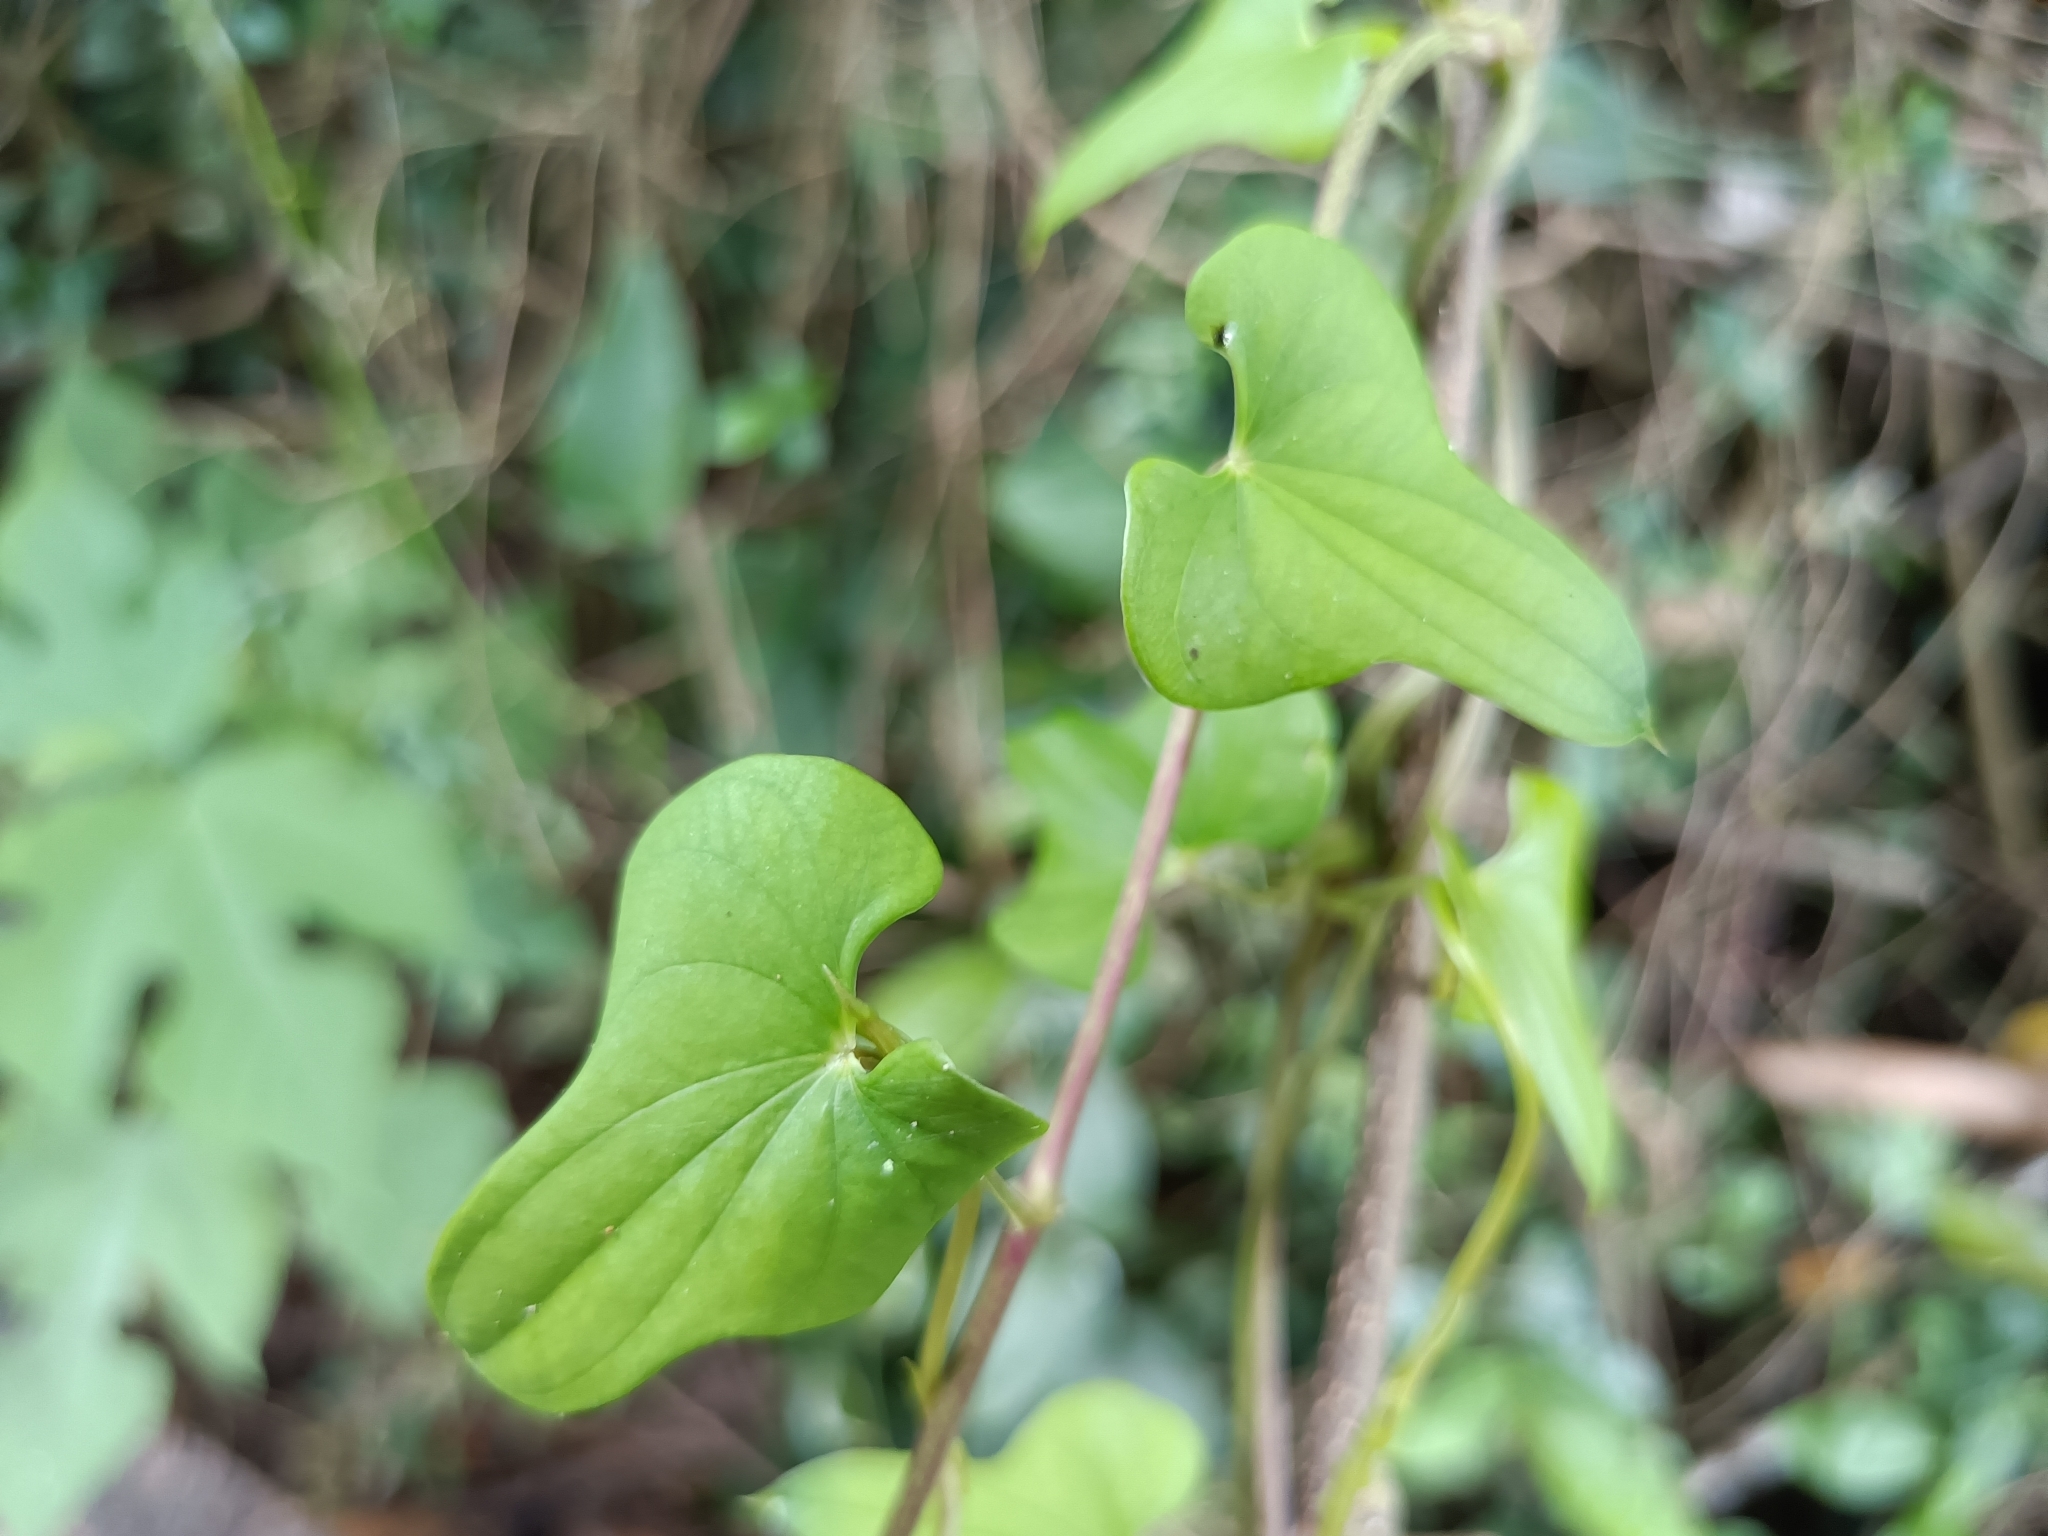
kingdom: Plantae
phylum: Tracheophyta
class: Liliopsida
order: Dioscoreales
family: Dioscoreaceae
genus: Dioscorea
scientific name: Dioscorea polystachya
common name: Chinese yam
